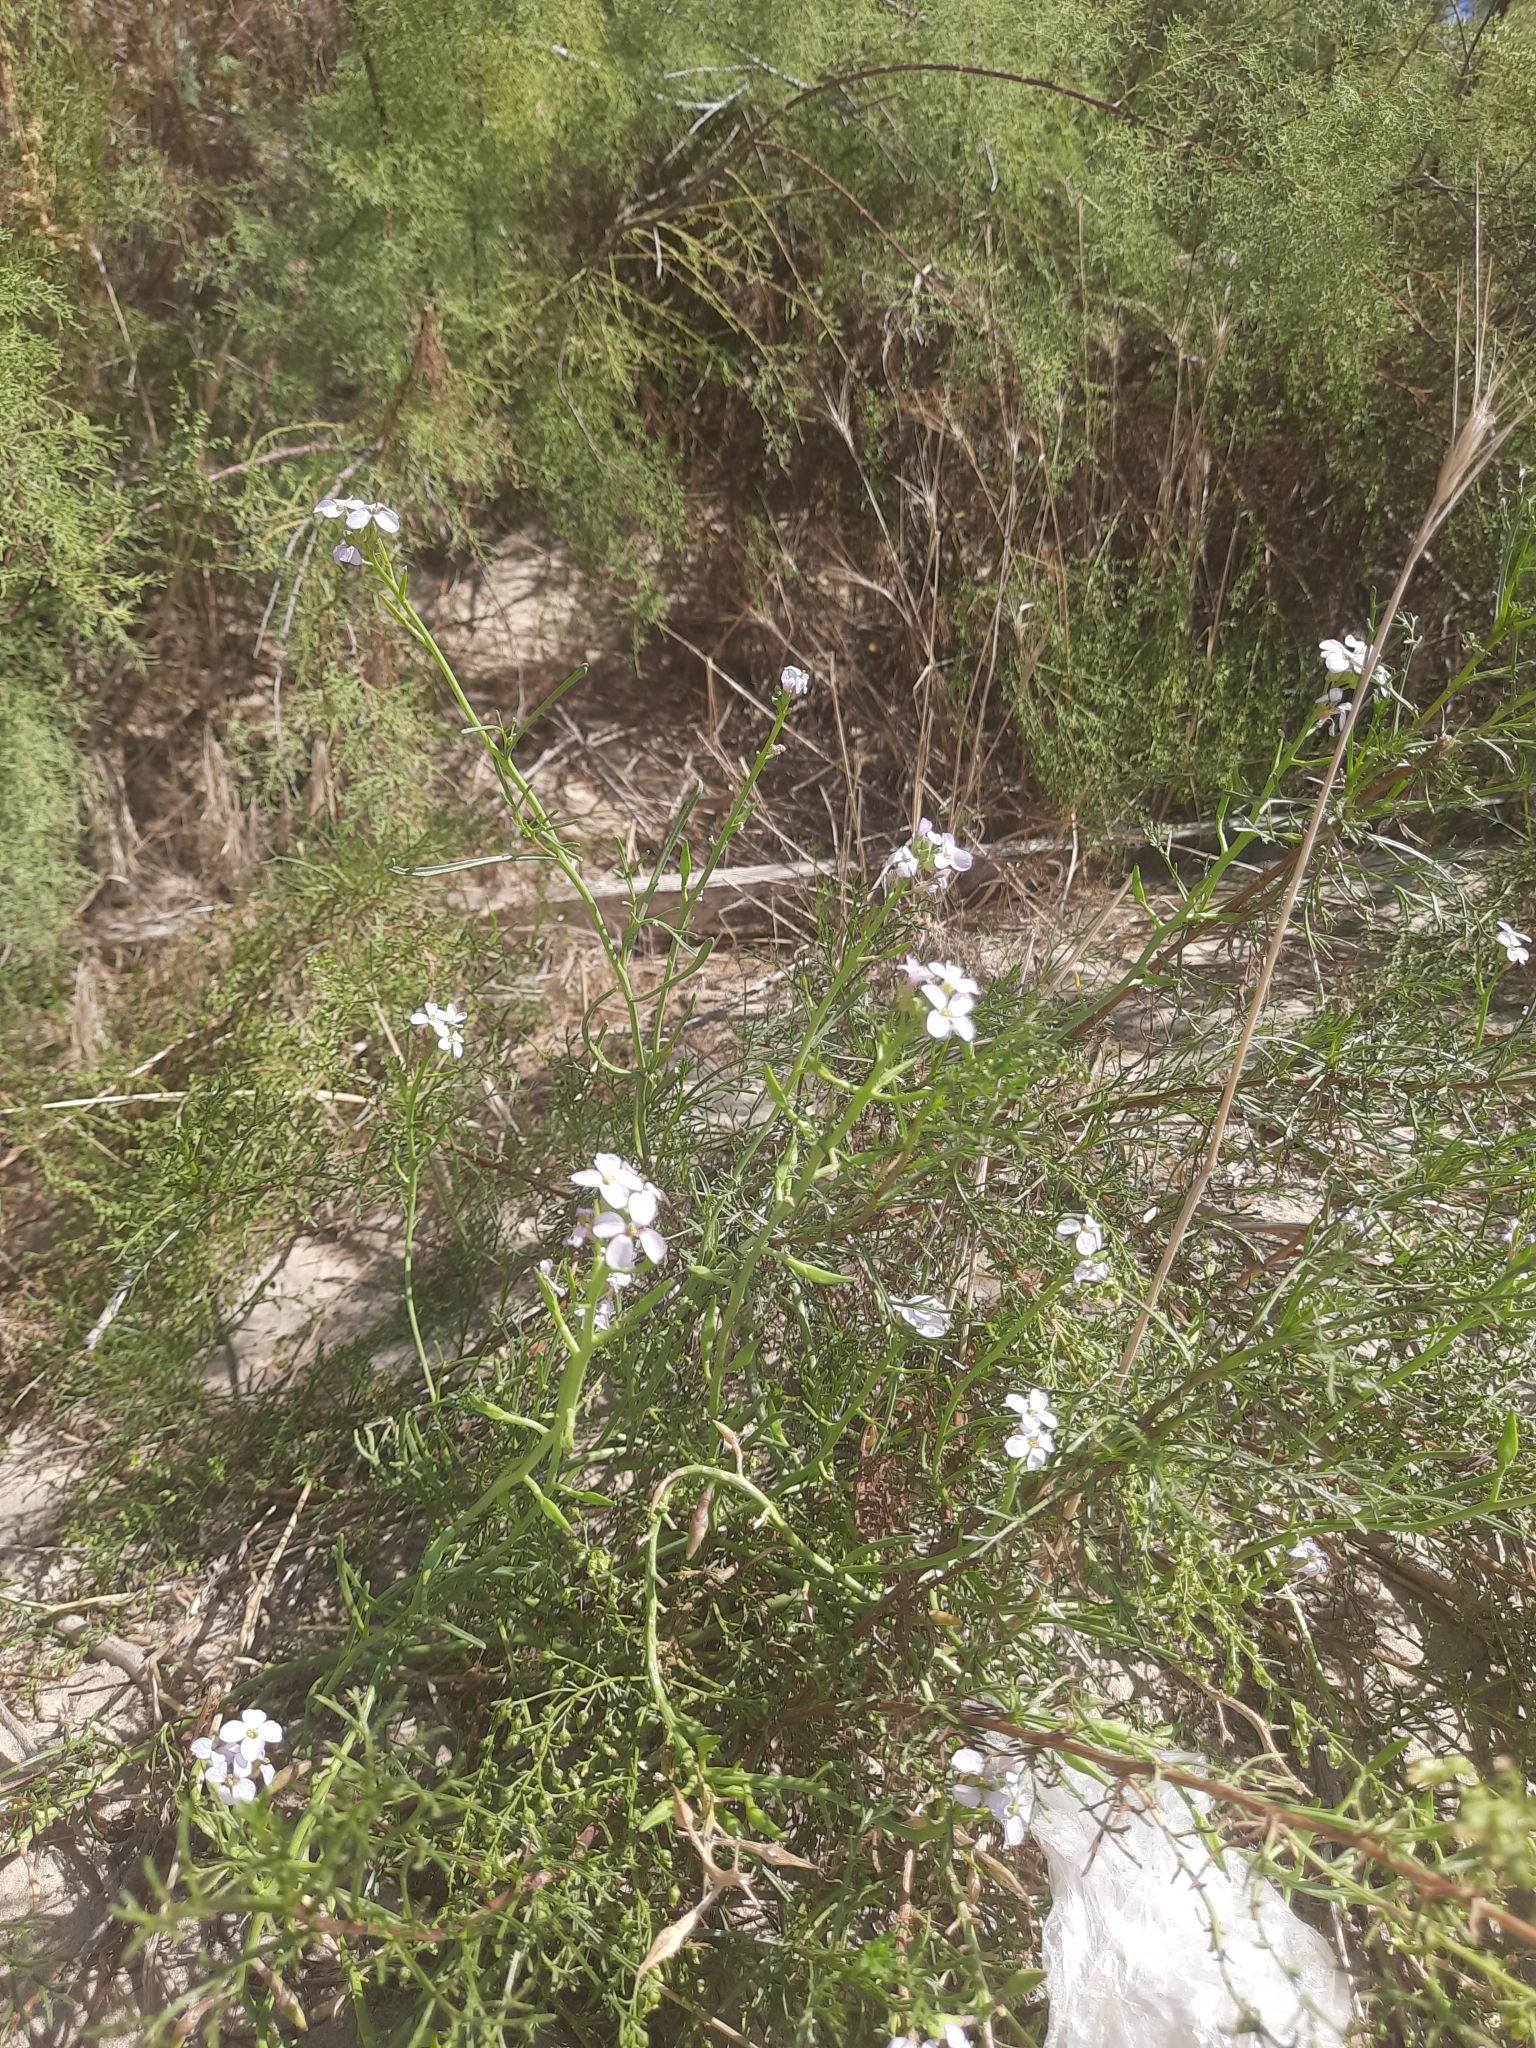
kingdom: Plantae
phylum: Tracheophyta
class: Magnoliopsida
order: Brassicales
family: Brassicaceae
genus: Cakile
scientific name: Cakile maritima
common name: Sea rocket
